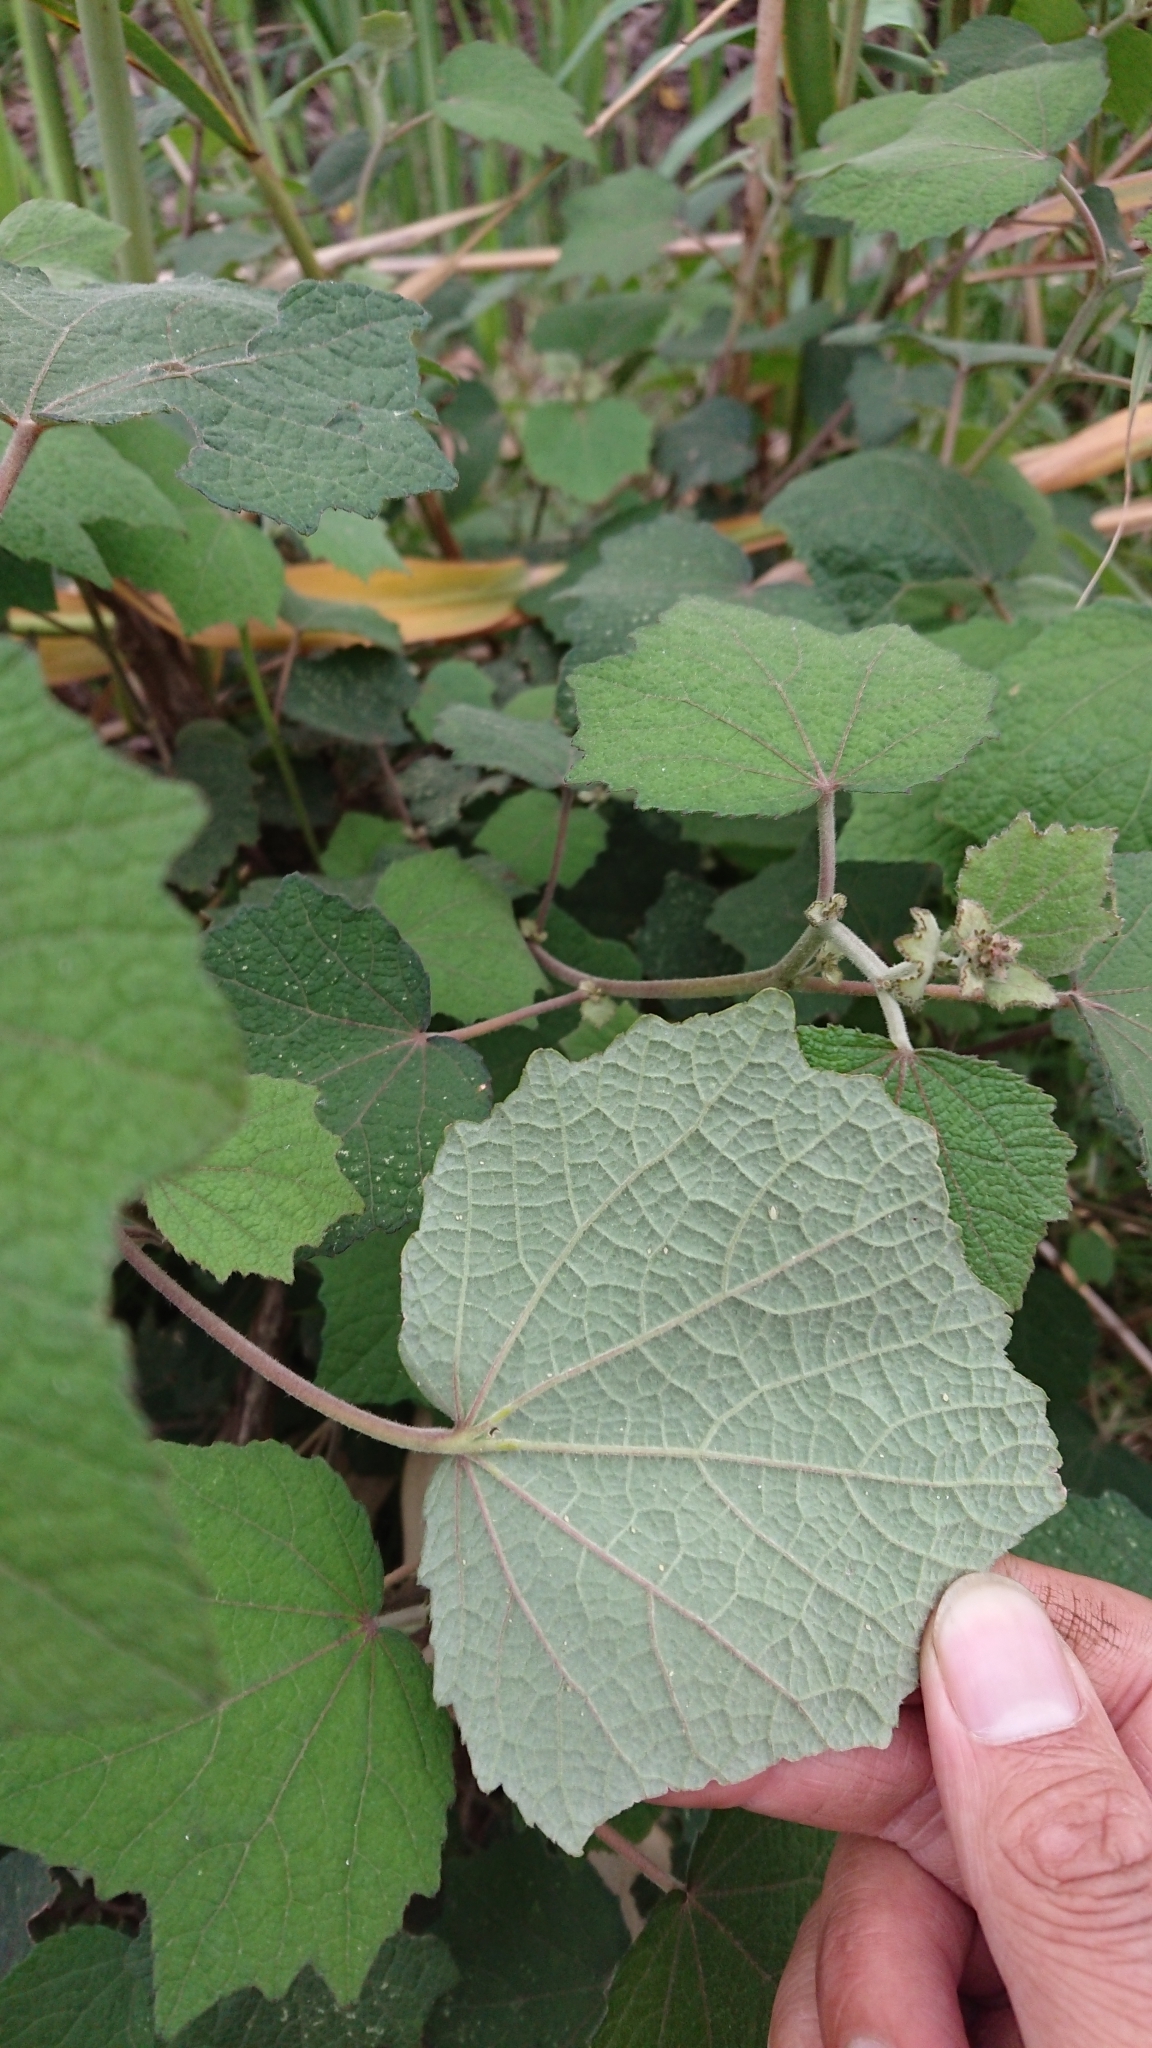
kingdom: Plantae
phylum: Tracheophyta
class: Magnoliopsida
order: Malvales
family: Malvaceae
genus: Urena
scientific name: Urena lobata
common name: Caesarweed
